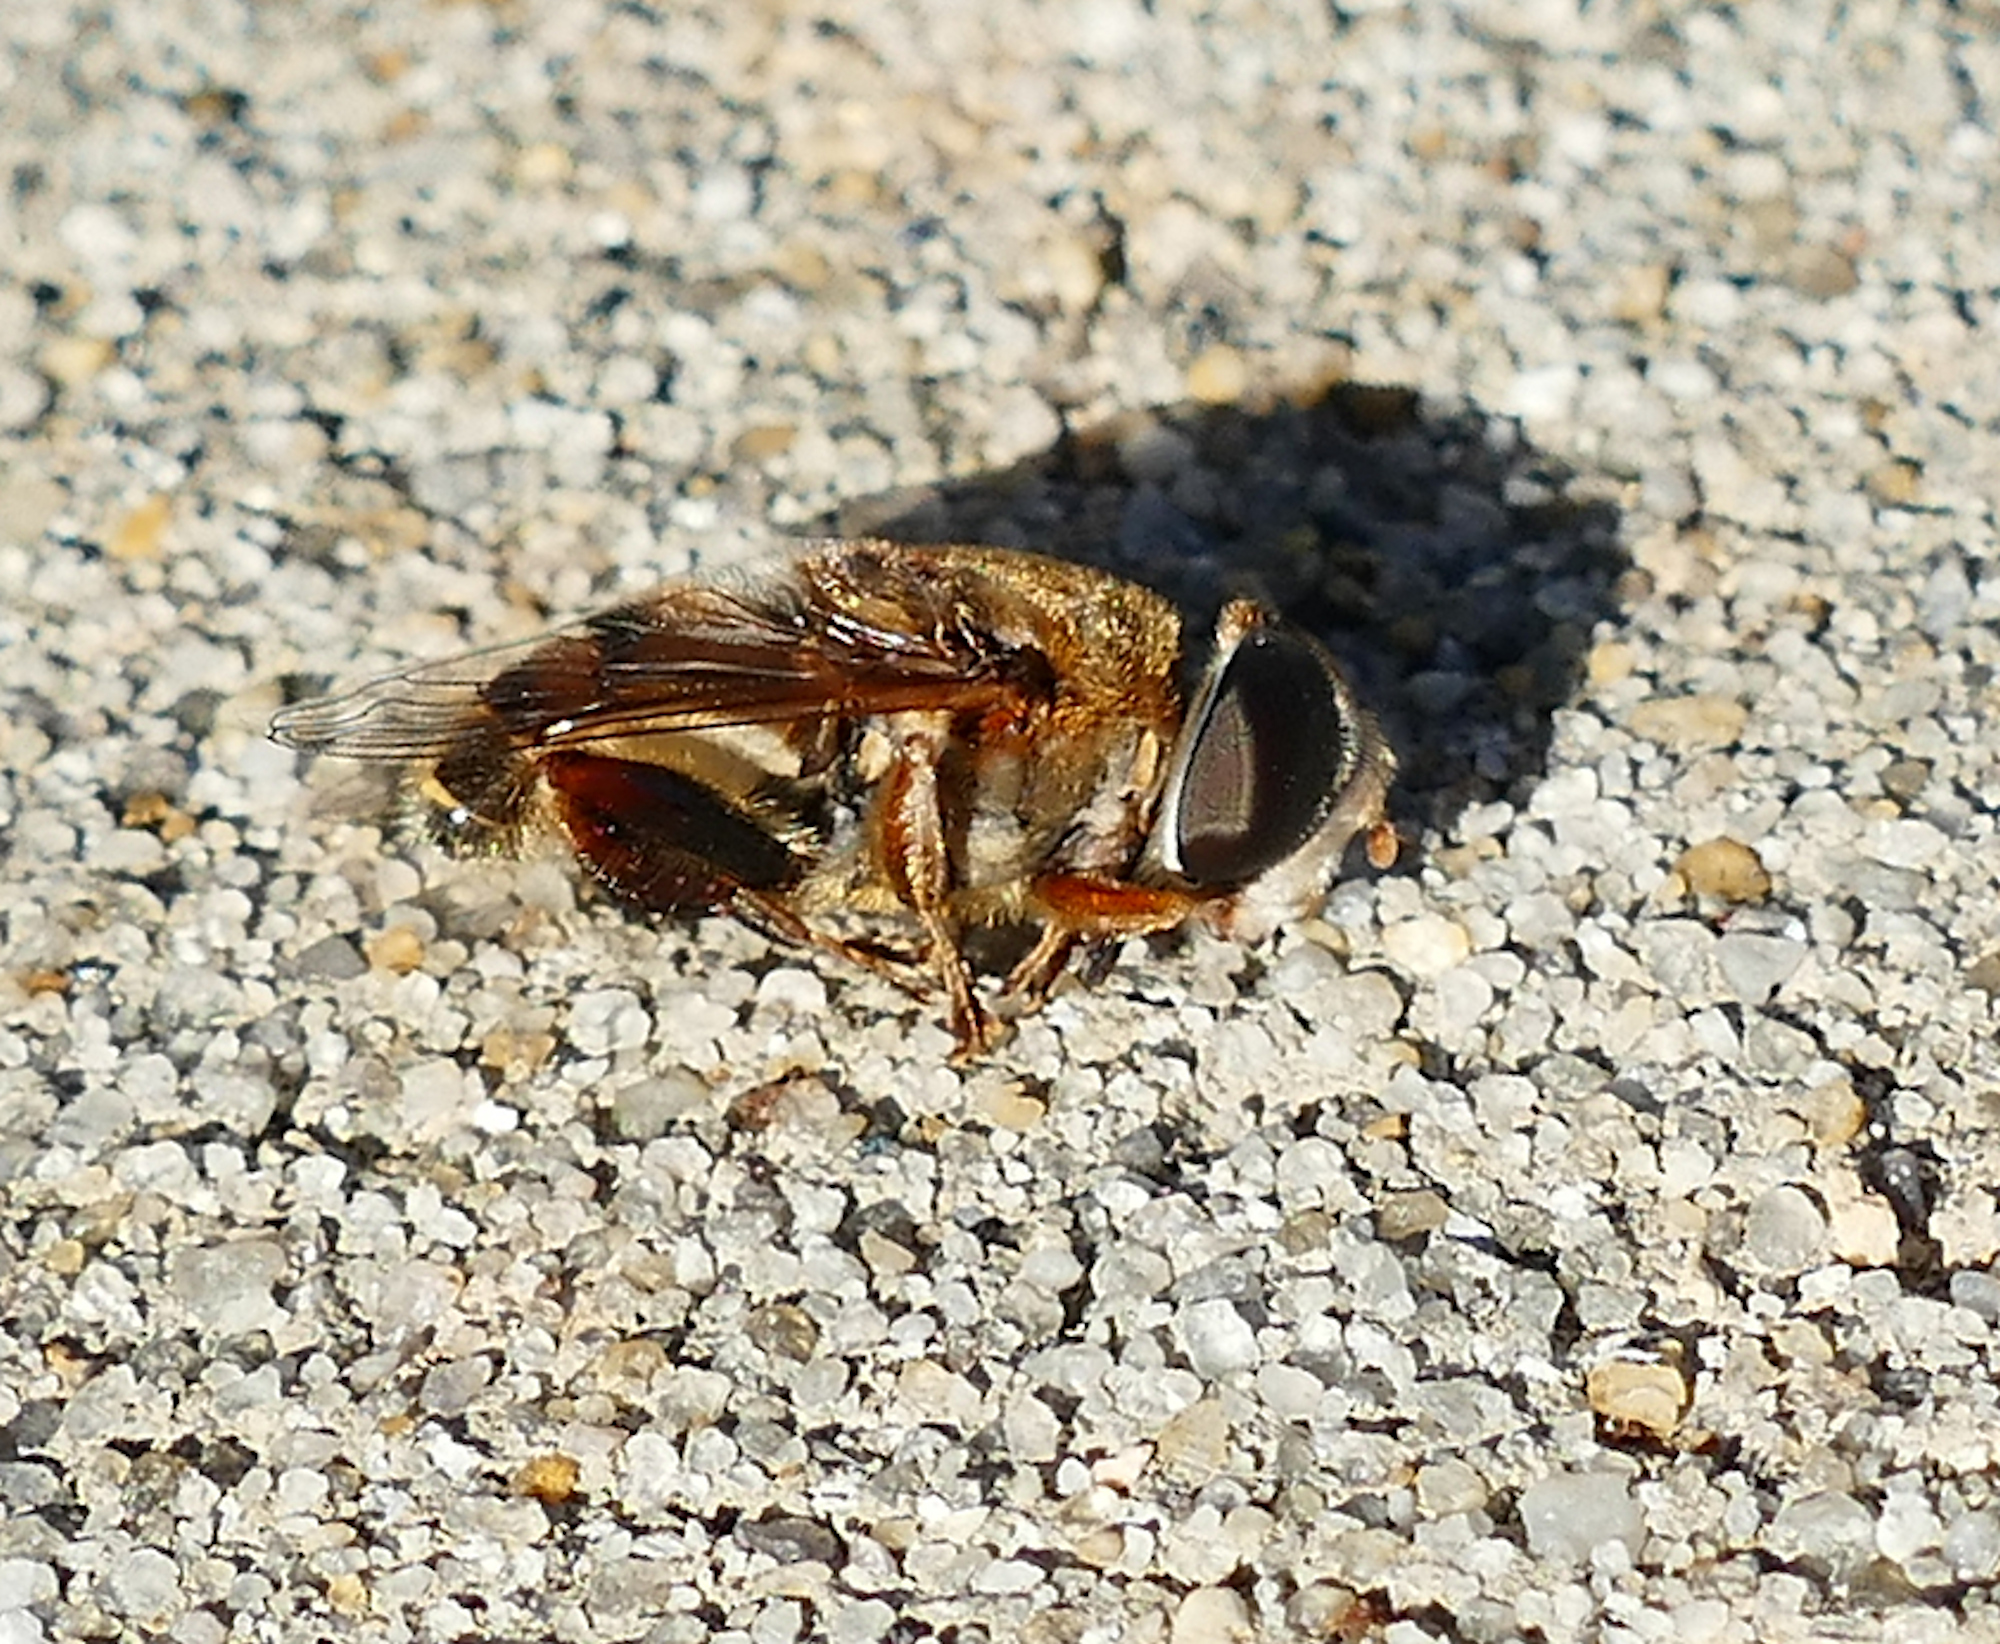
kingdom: Animalia
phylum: Arthropoda
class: Insecta
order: Diptera
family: Syrphidae
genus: Palpada
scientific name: Palpada vinetorum
